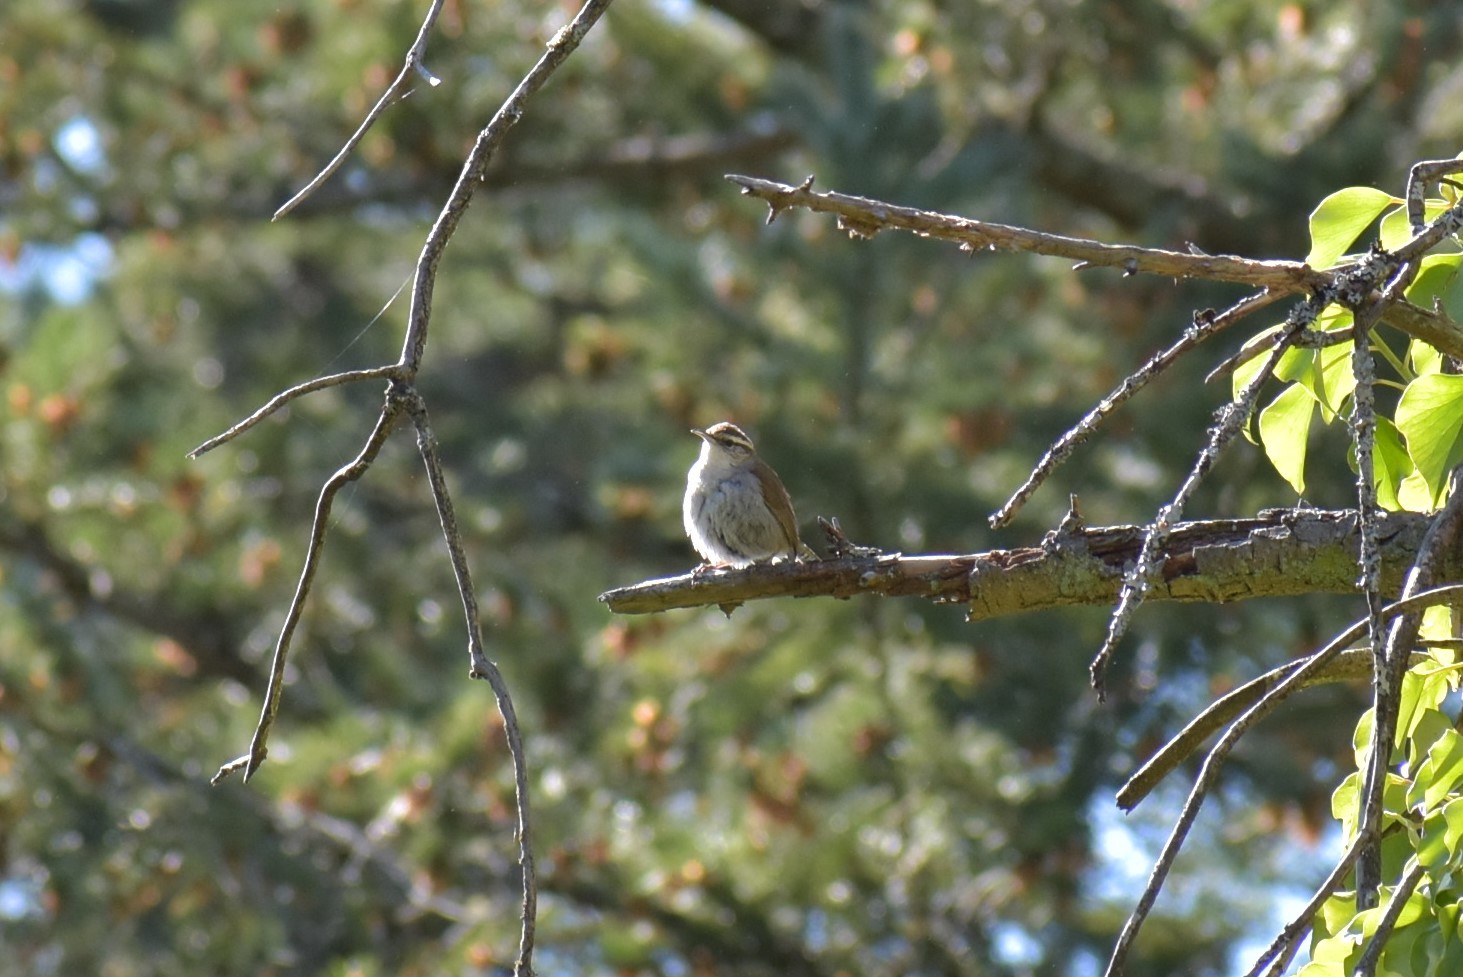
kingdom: Animalia
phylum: Chordata
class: Aves
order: Passeriformes
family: Troglodytidae
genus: Thryomanes
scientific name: Thryomanes bewickii
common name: Bewick's wren
